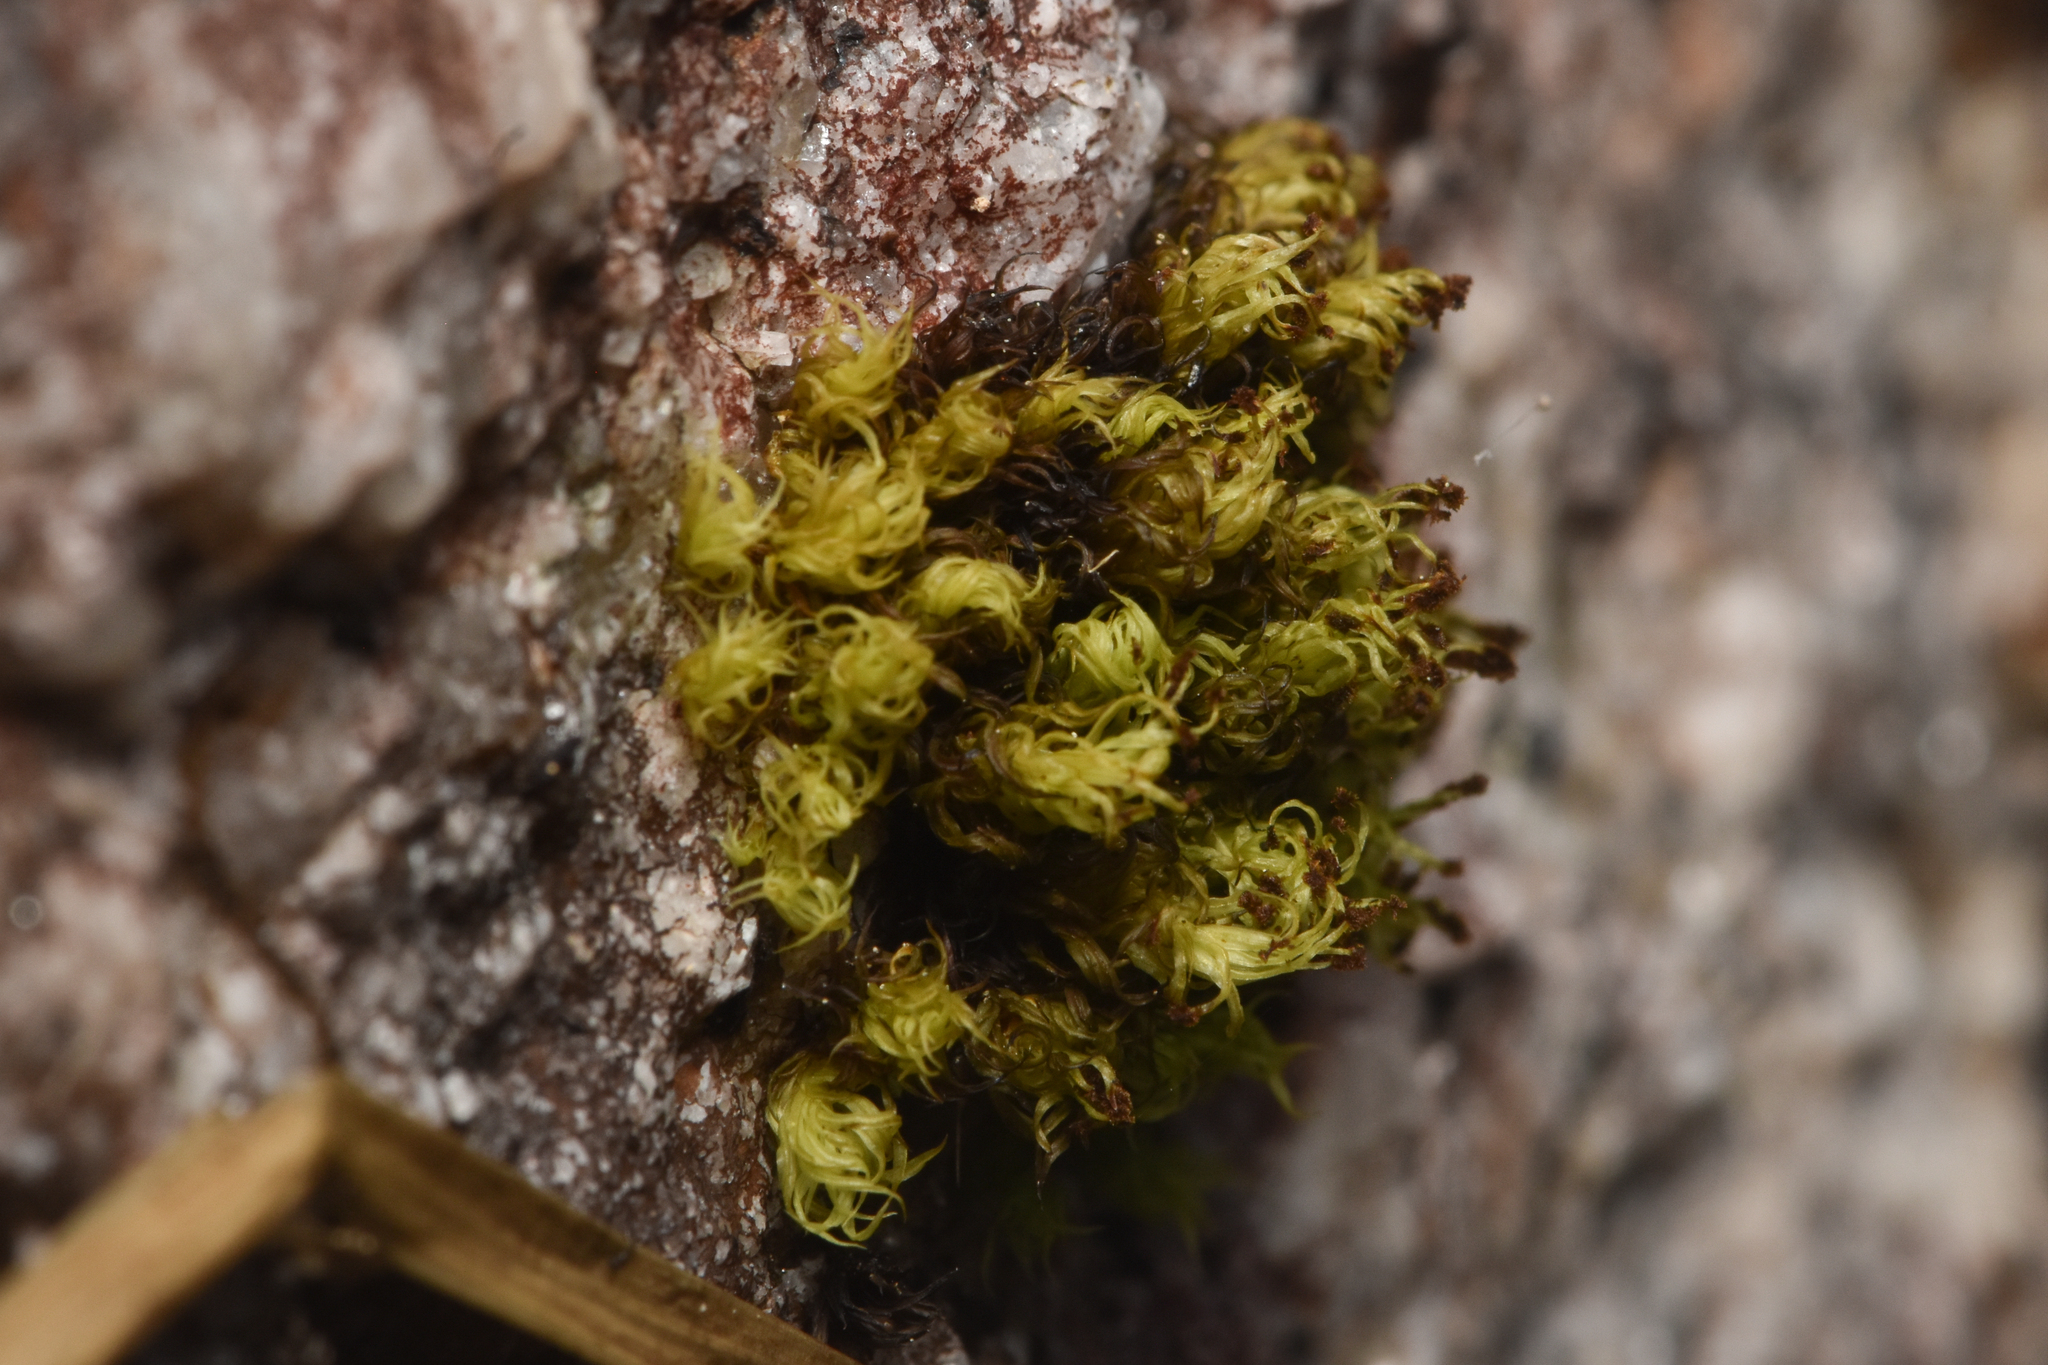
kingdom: Plantae
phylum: Bryophyta
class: Bryopsida
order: Orthotrichales
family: Orthotrichaceae
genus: Plenogemma
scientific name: Plenogemma phyllantha
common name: Frizzled pincushion
